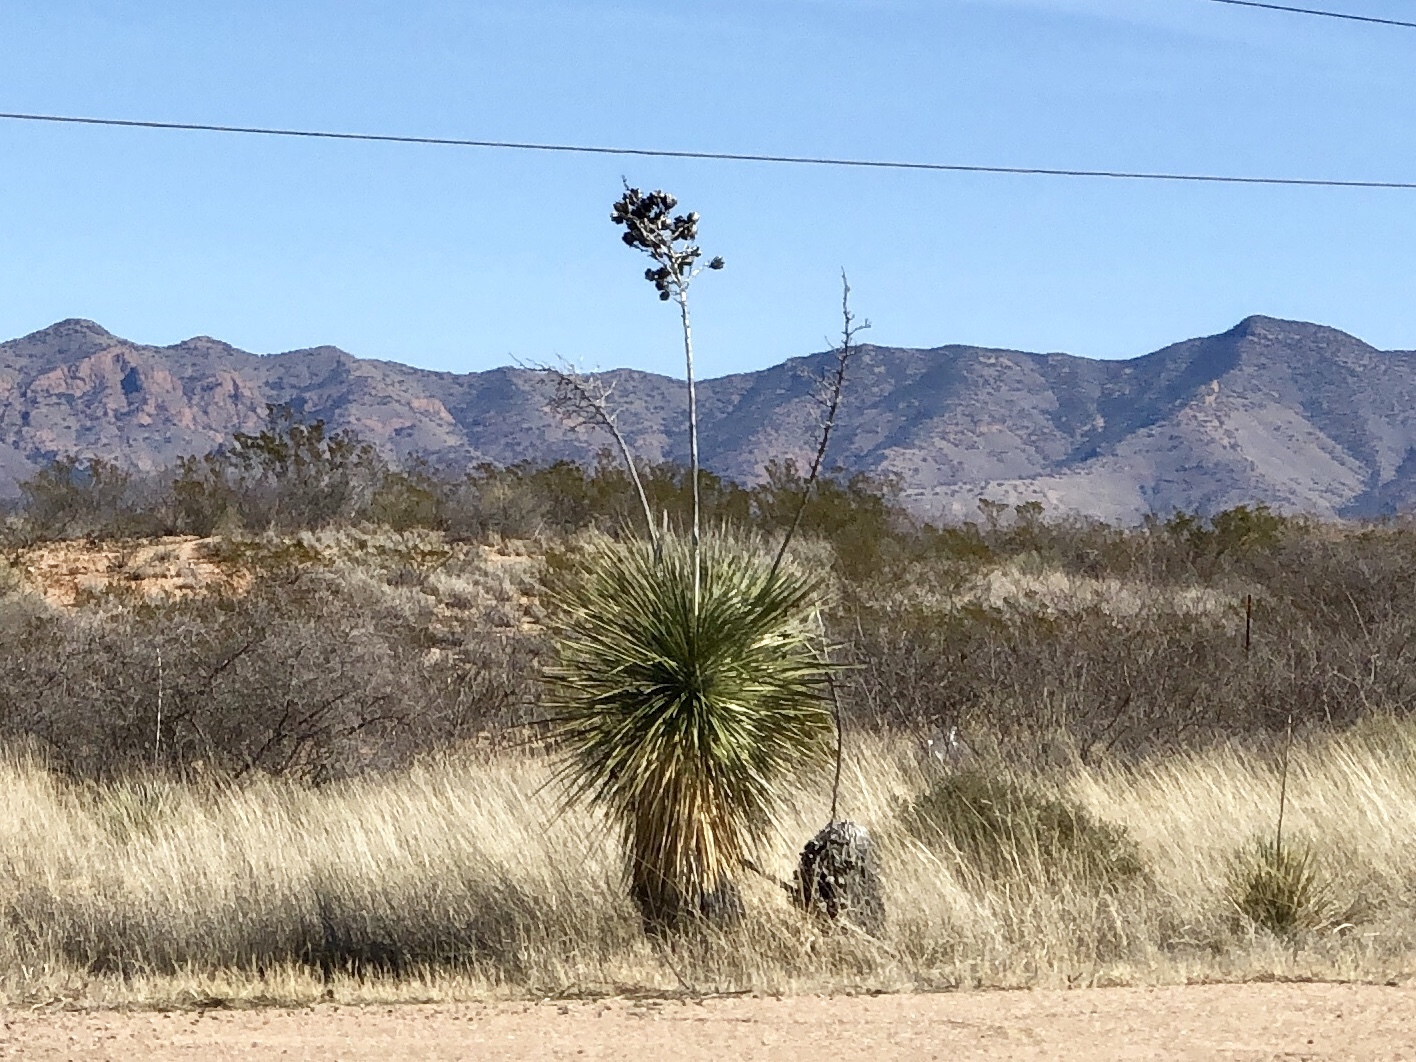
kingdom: Plantae
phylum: Tracheophyta
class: Liliopsida
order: Asparagales
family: Asparagaceae
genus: Yucca
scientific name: Yucca elata
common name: Palmella
